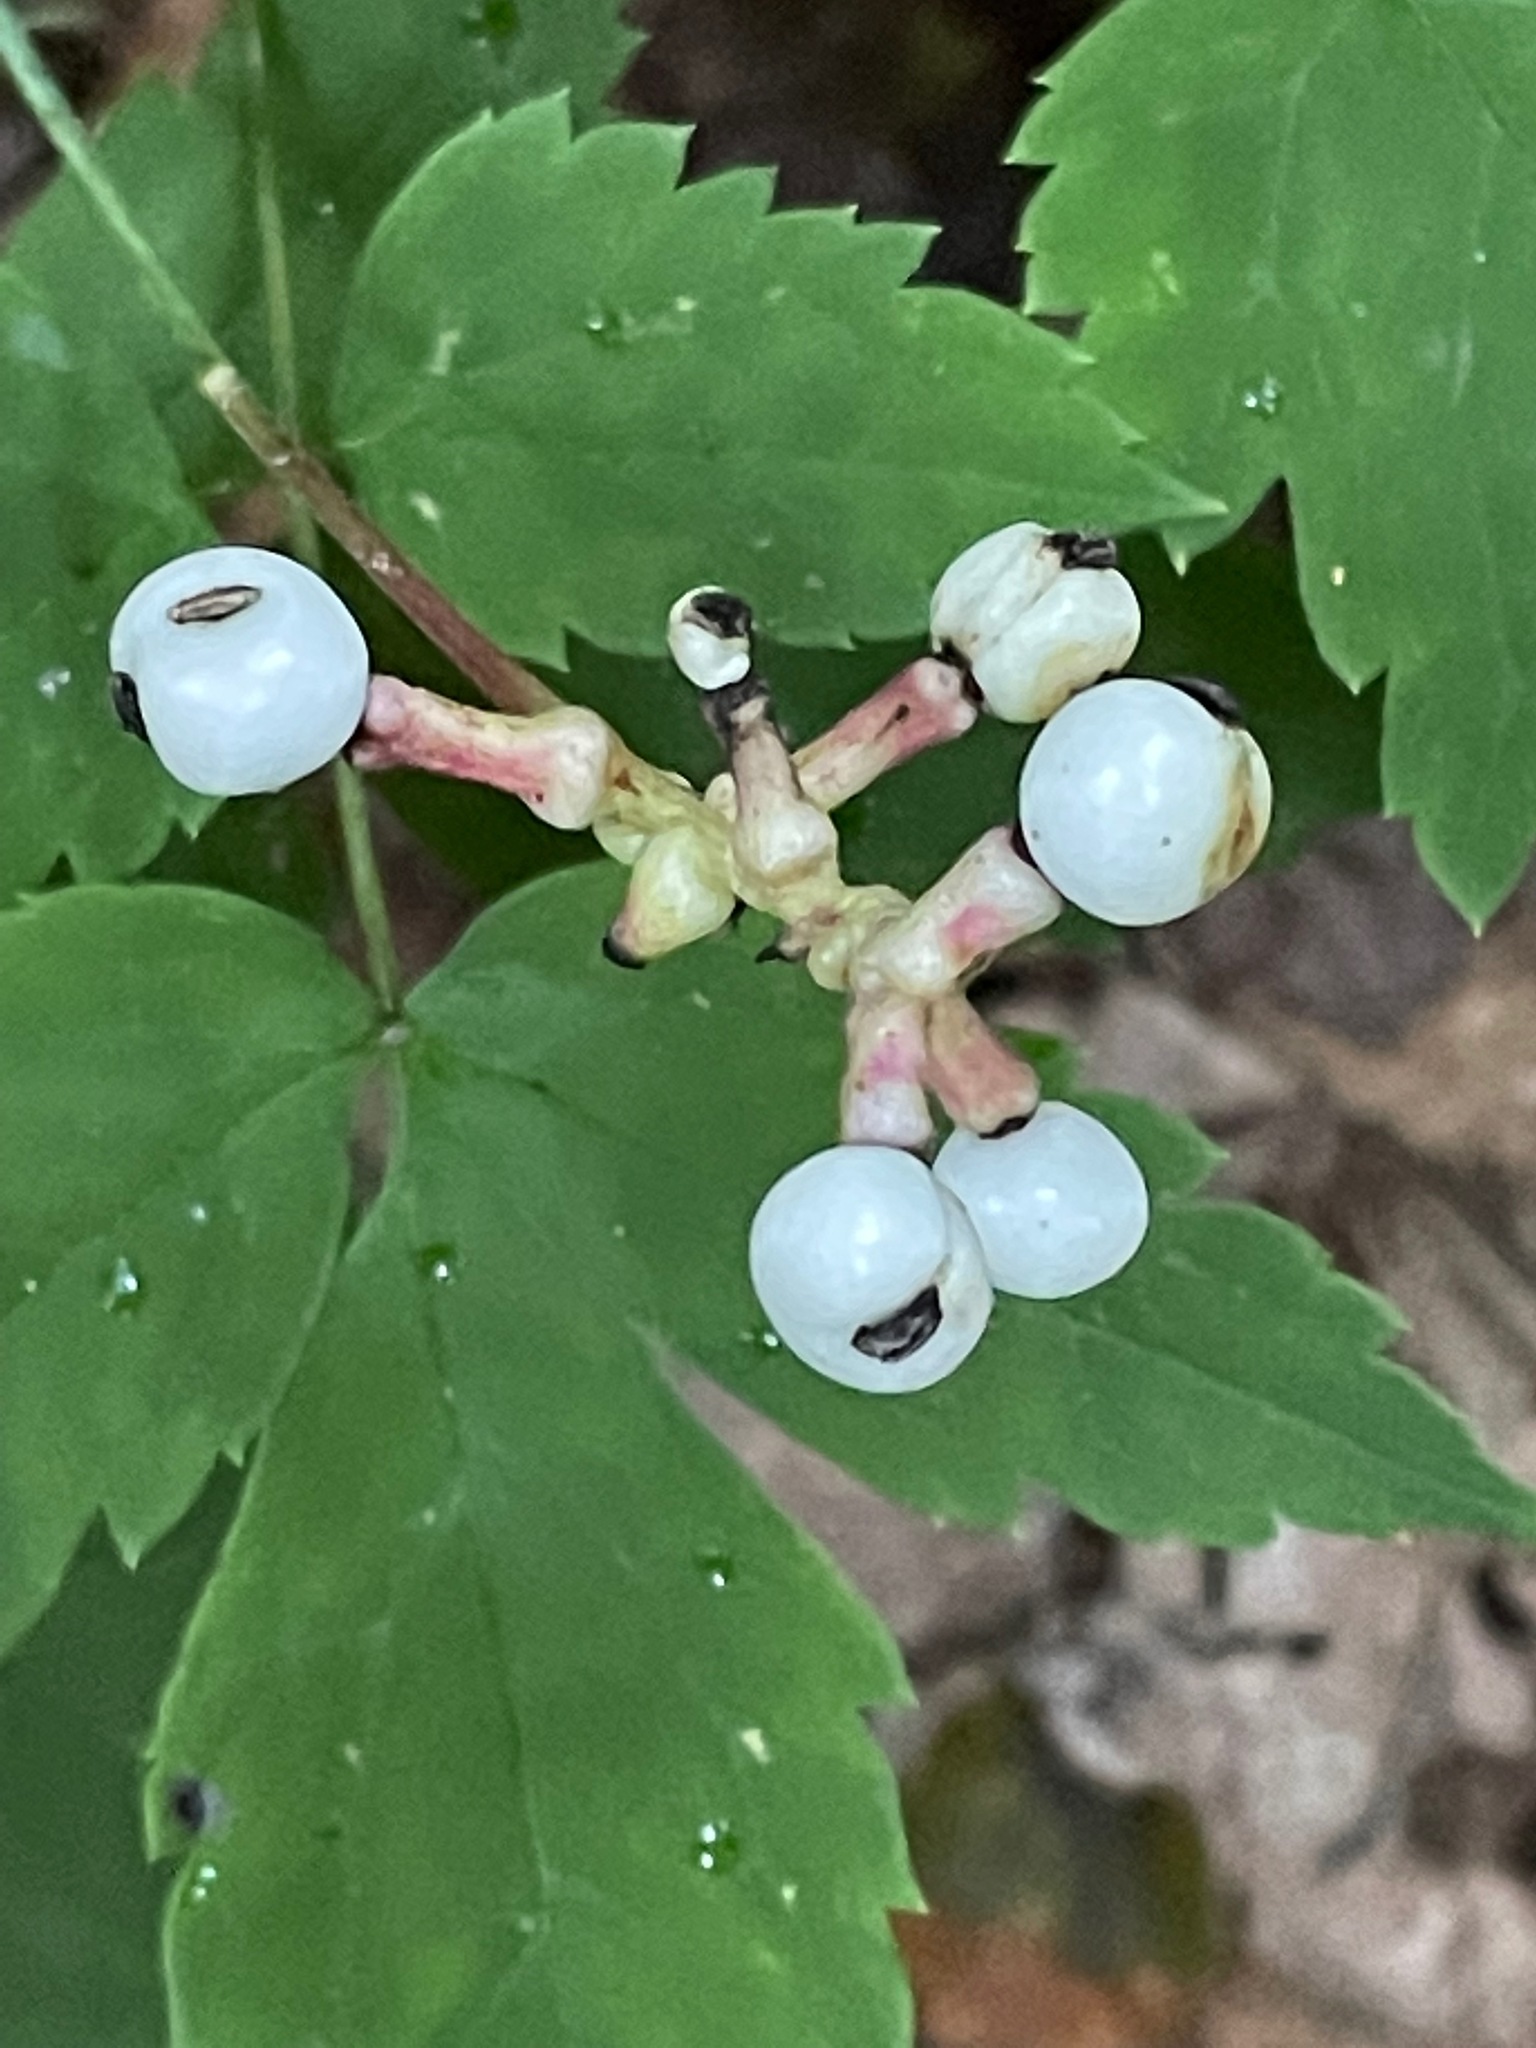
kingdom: Plantae
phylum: Tracheophyta
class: Magnoliopsida
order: Ranunculales
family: Ranunculaceae
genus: Actaea
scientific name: Actaea pachypoda
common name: Doll's-eyes
